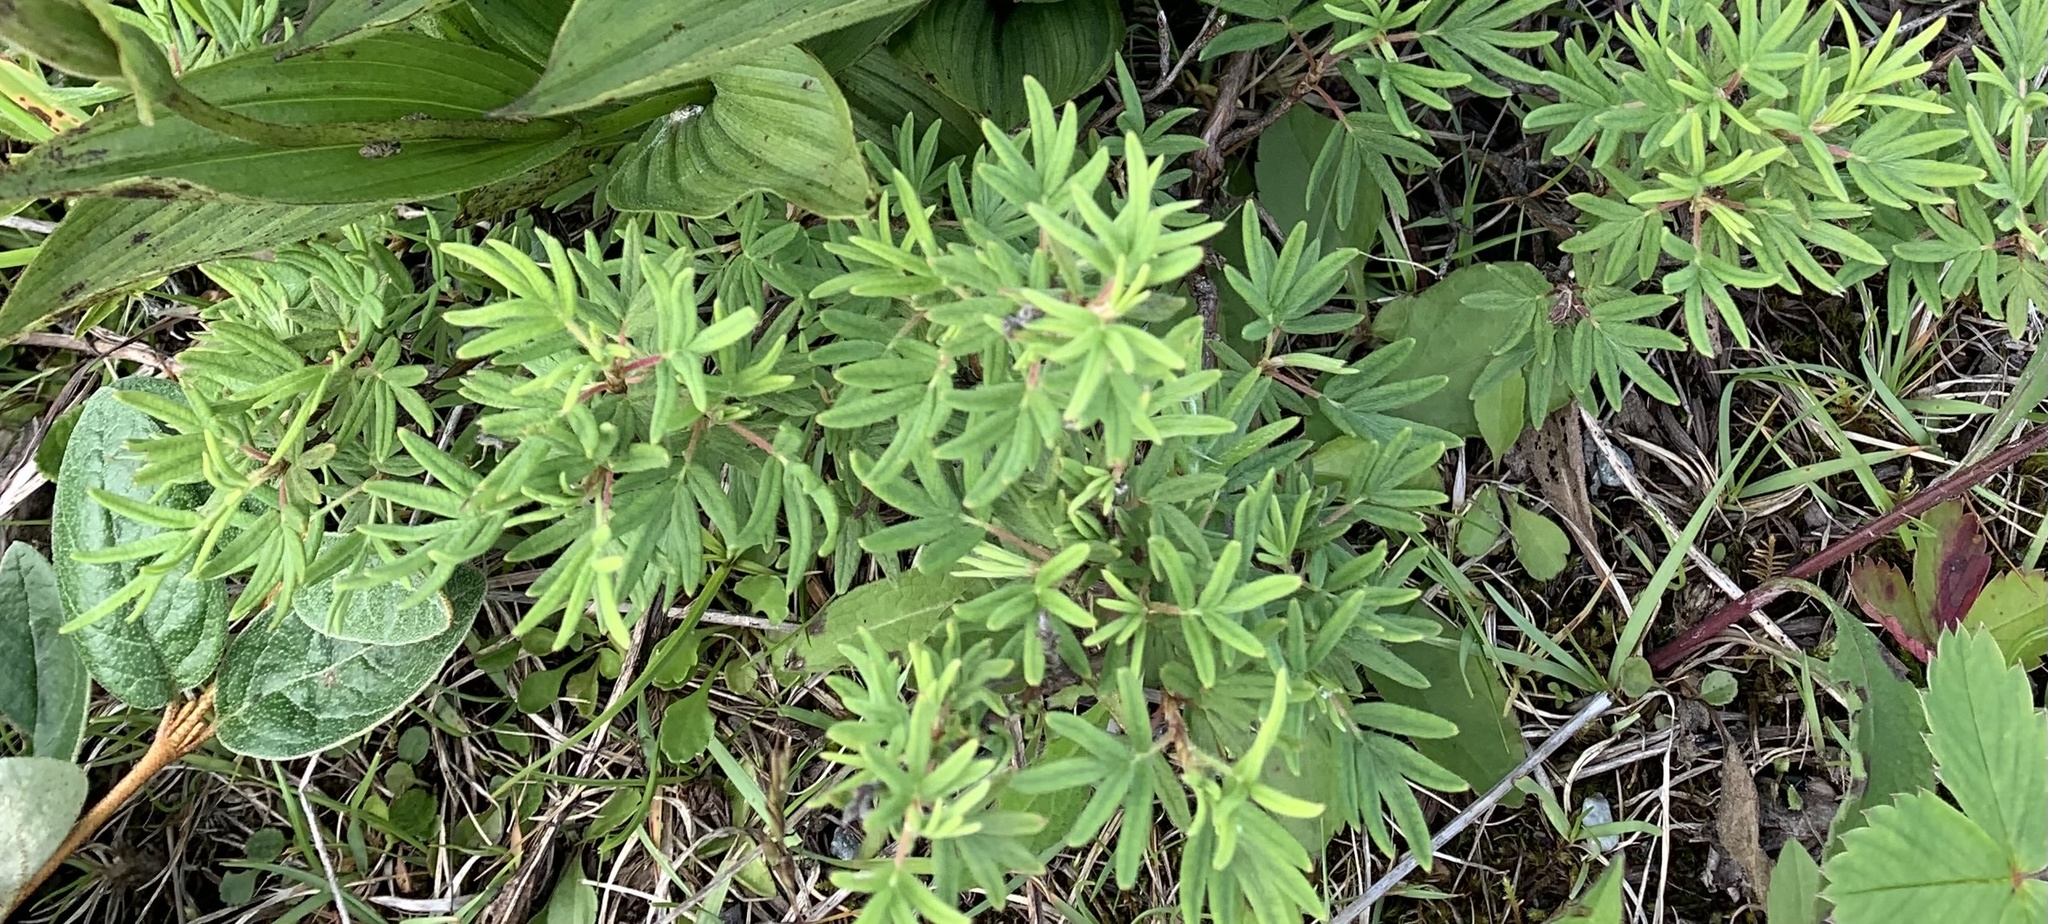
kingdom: Plantae
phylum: Tracheophyta
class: Magnoliopsida
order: Rosales
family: Rosaceae
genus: Dasiphora
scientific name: Dasiphora fruticosa
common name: Shrubby cinquefoil
